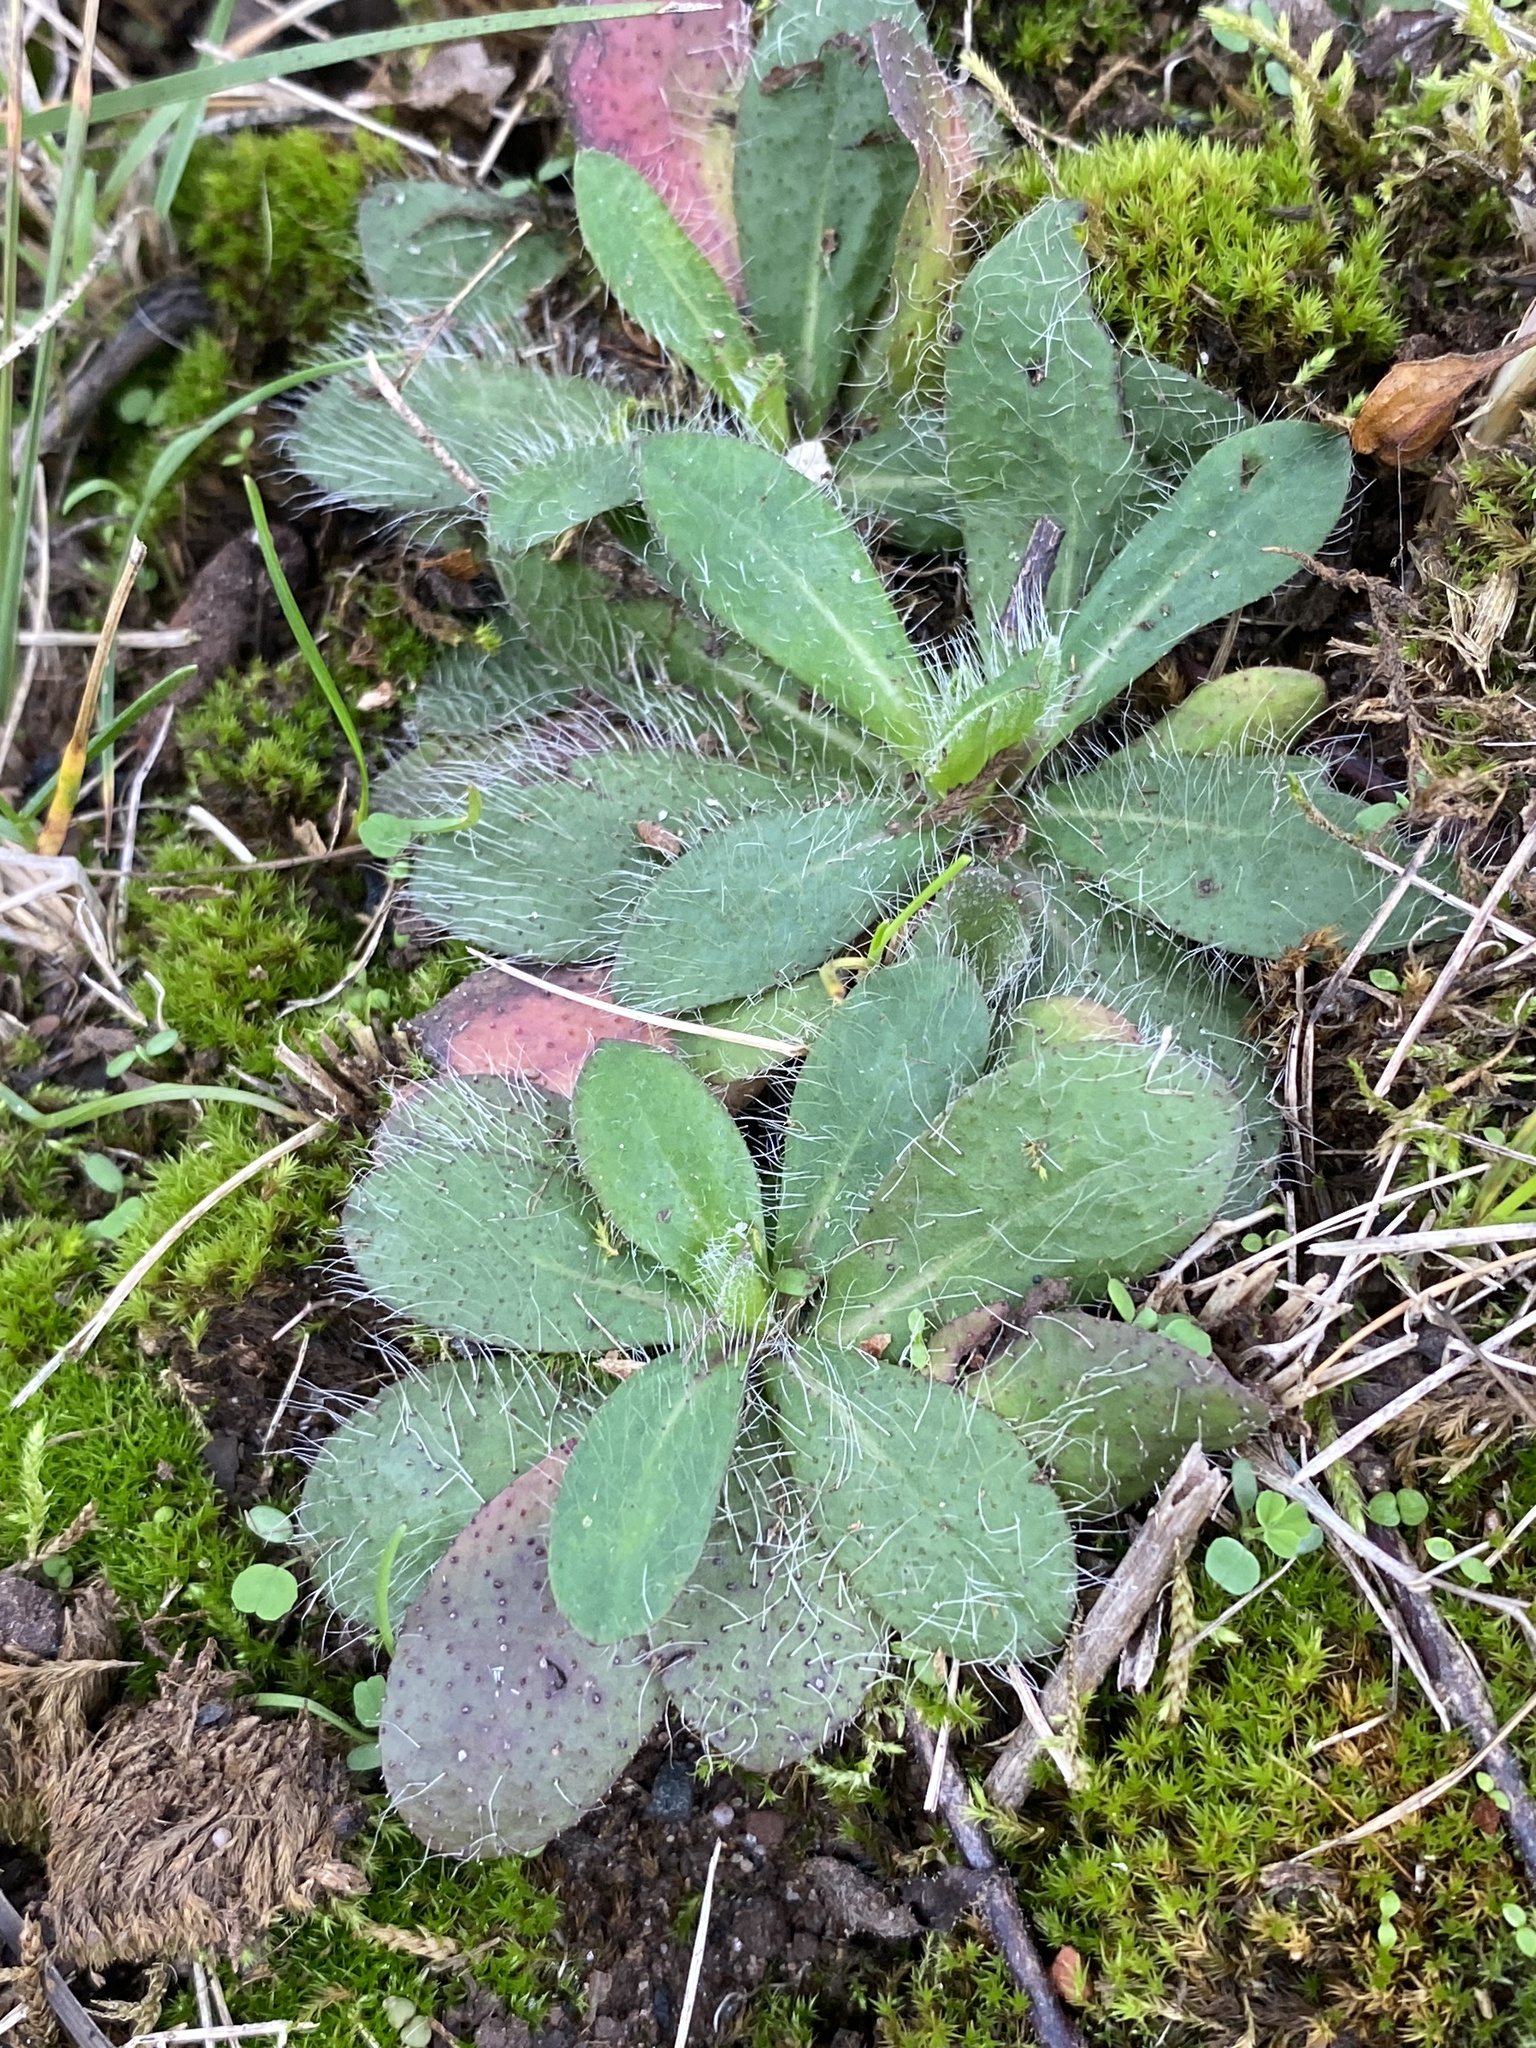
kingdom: Plantae
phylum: Tracheophyta
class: Magnoliopsida
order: Asterales
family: Asteraceae
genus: Pilosella
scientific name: Pilosella officinarum
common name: Mouse-ear hawkweed
